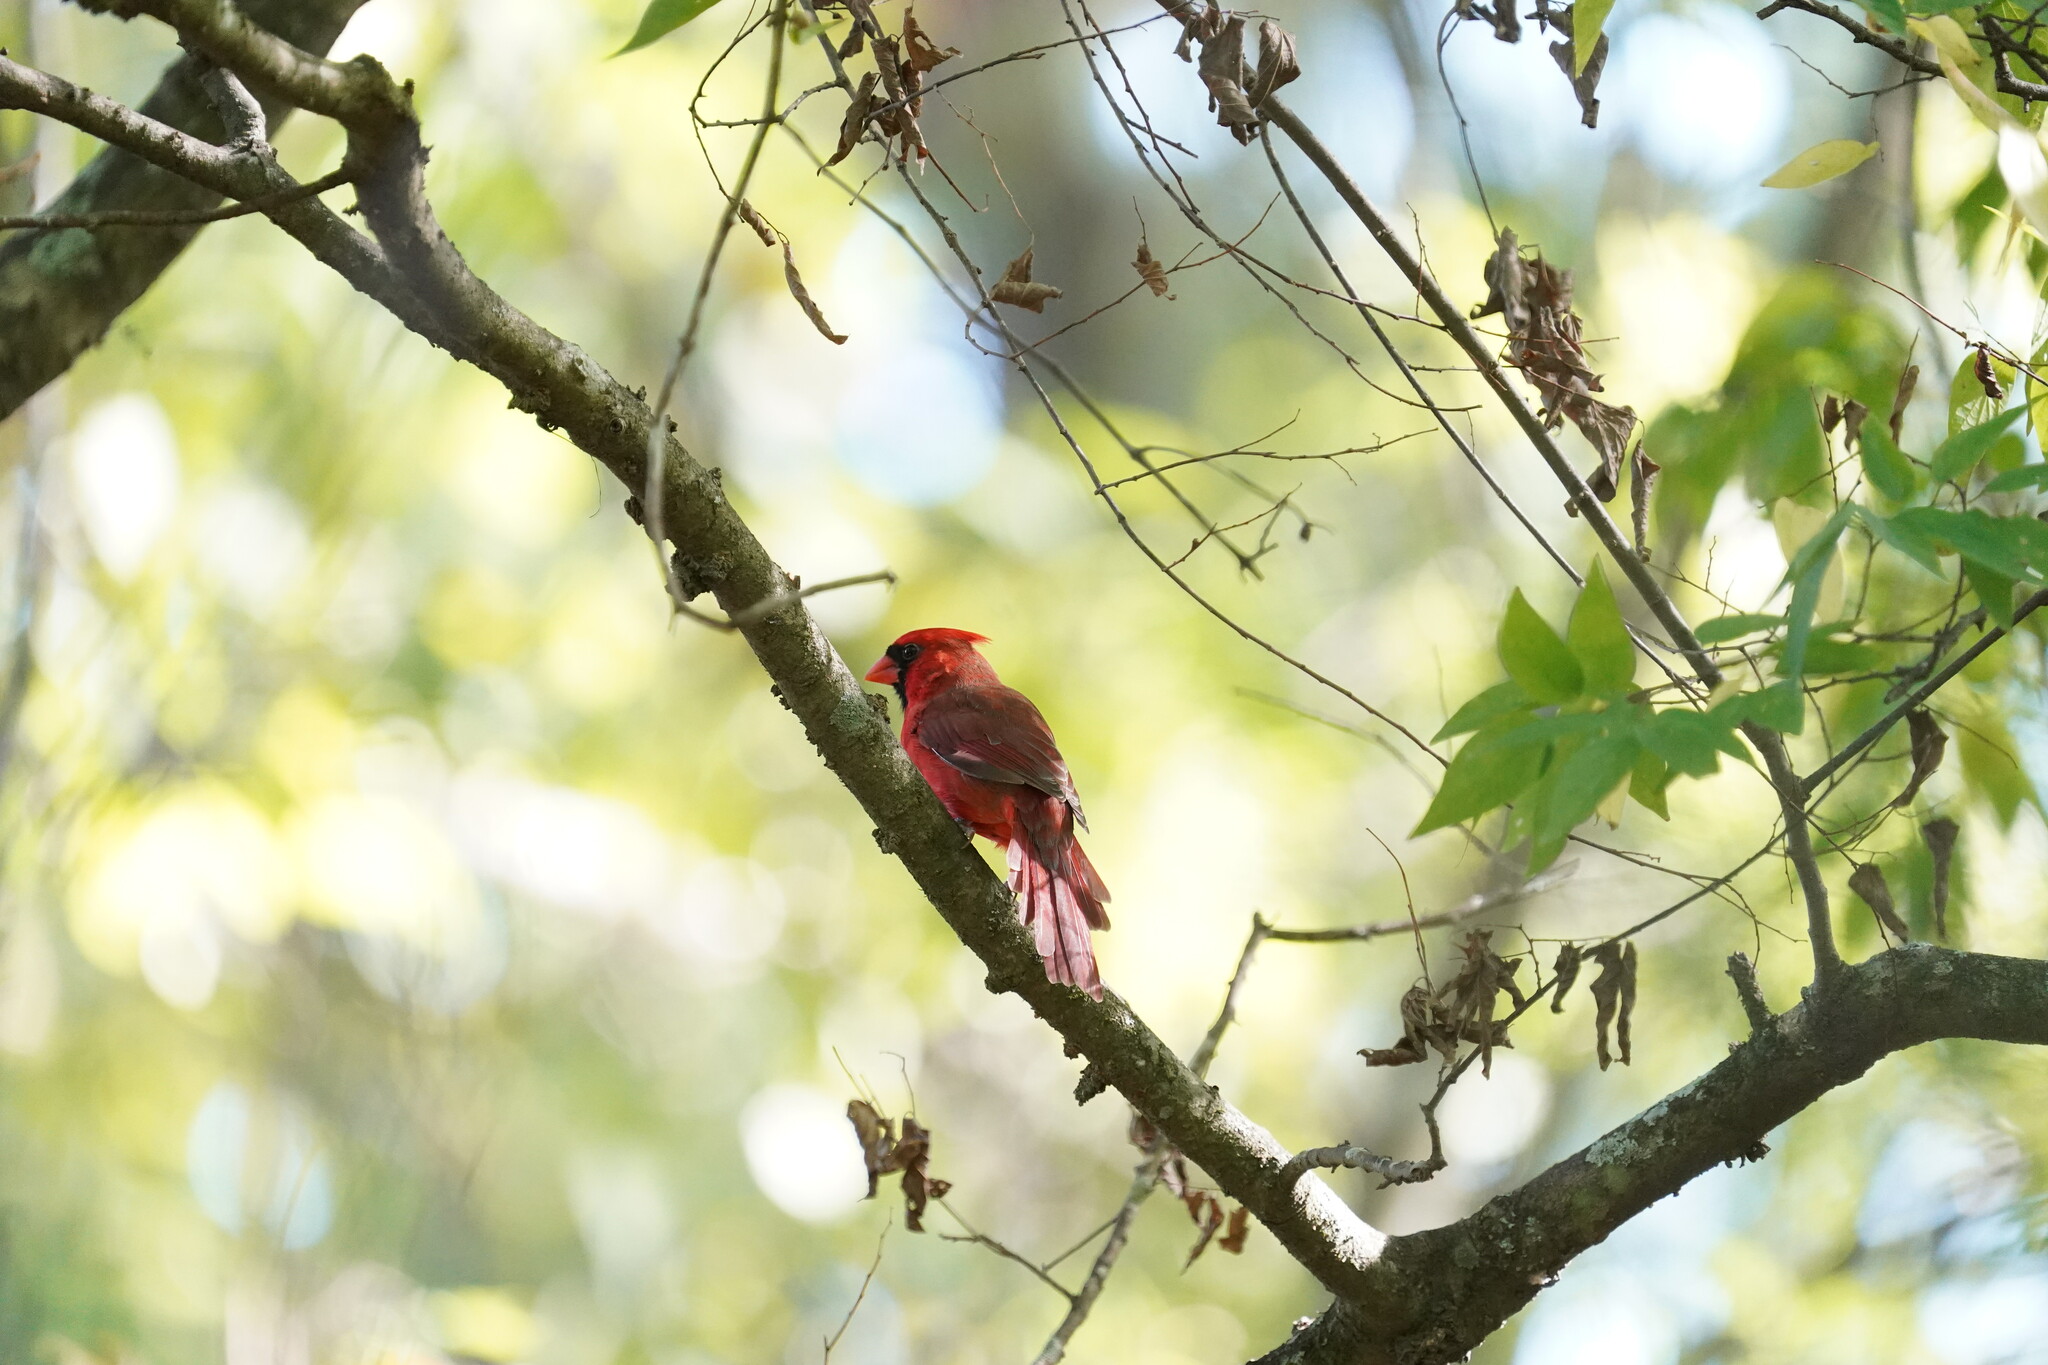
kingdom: Animalia
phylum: Chordata
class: Aves
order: Passeriformes
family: Cardinalidae
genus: Cardinalis
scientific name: Cardinalis cardinalis
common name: Northern cardinal
